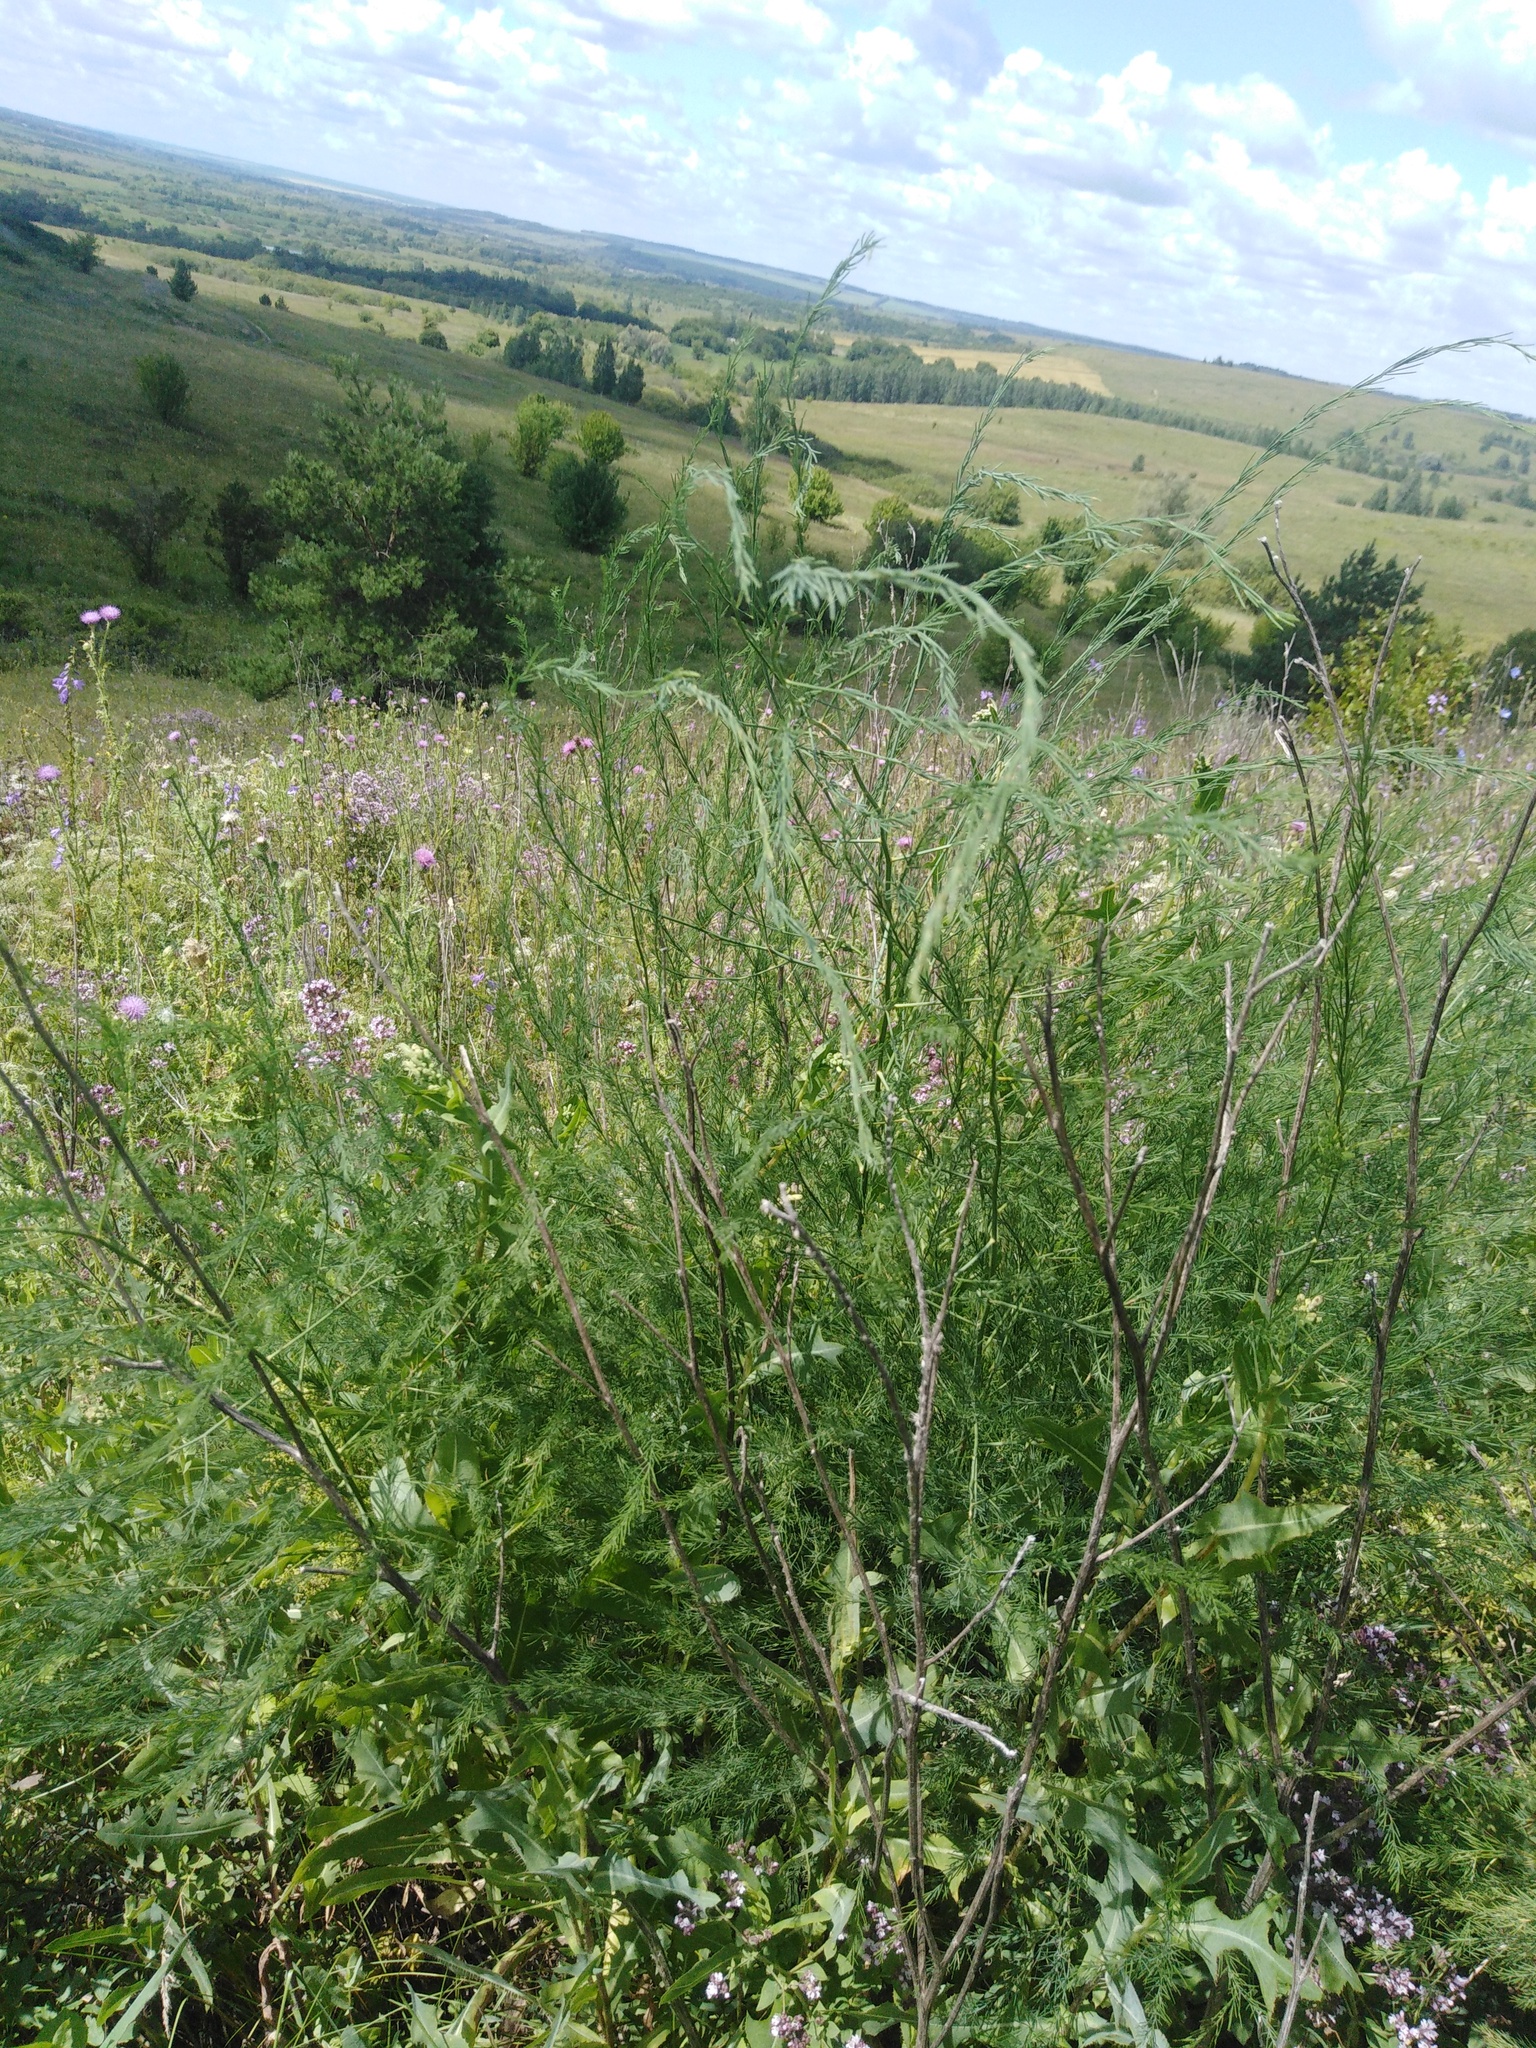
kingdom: Plantae
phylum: Tracheophyta
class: Liliopsida
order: Asparagales
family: Asparagaceae
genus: Asparagus
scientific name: Asparagus officinalis
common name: Garden asparagus
